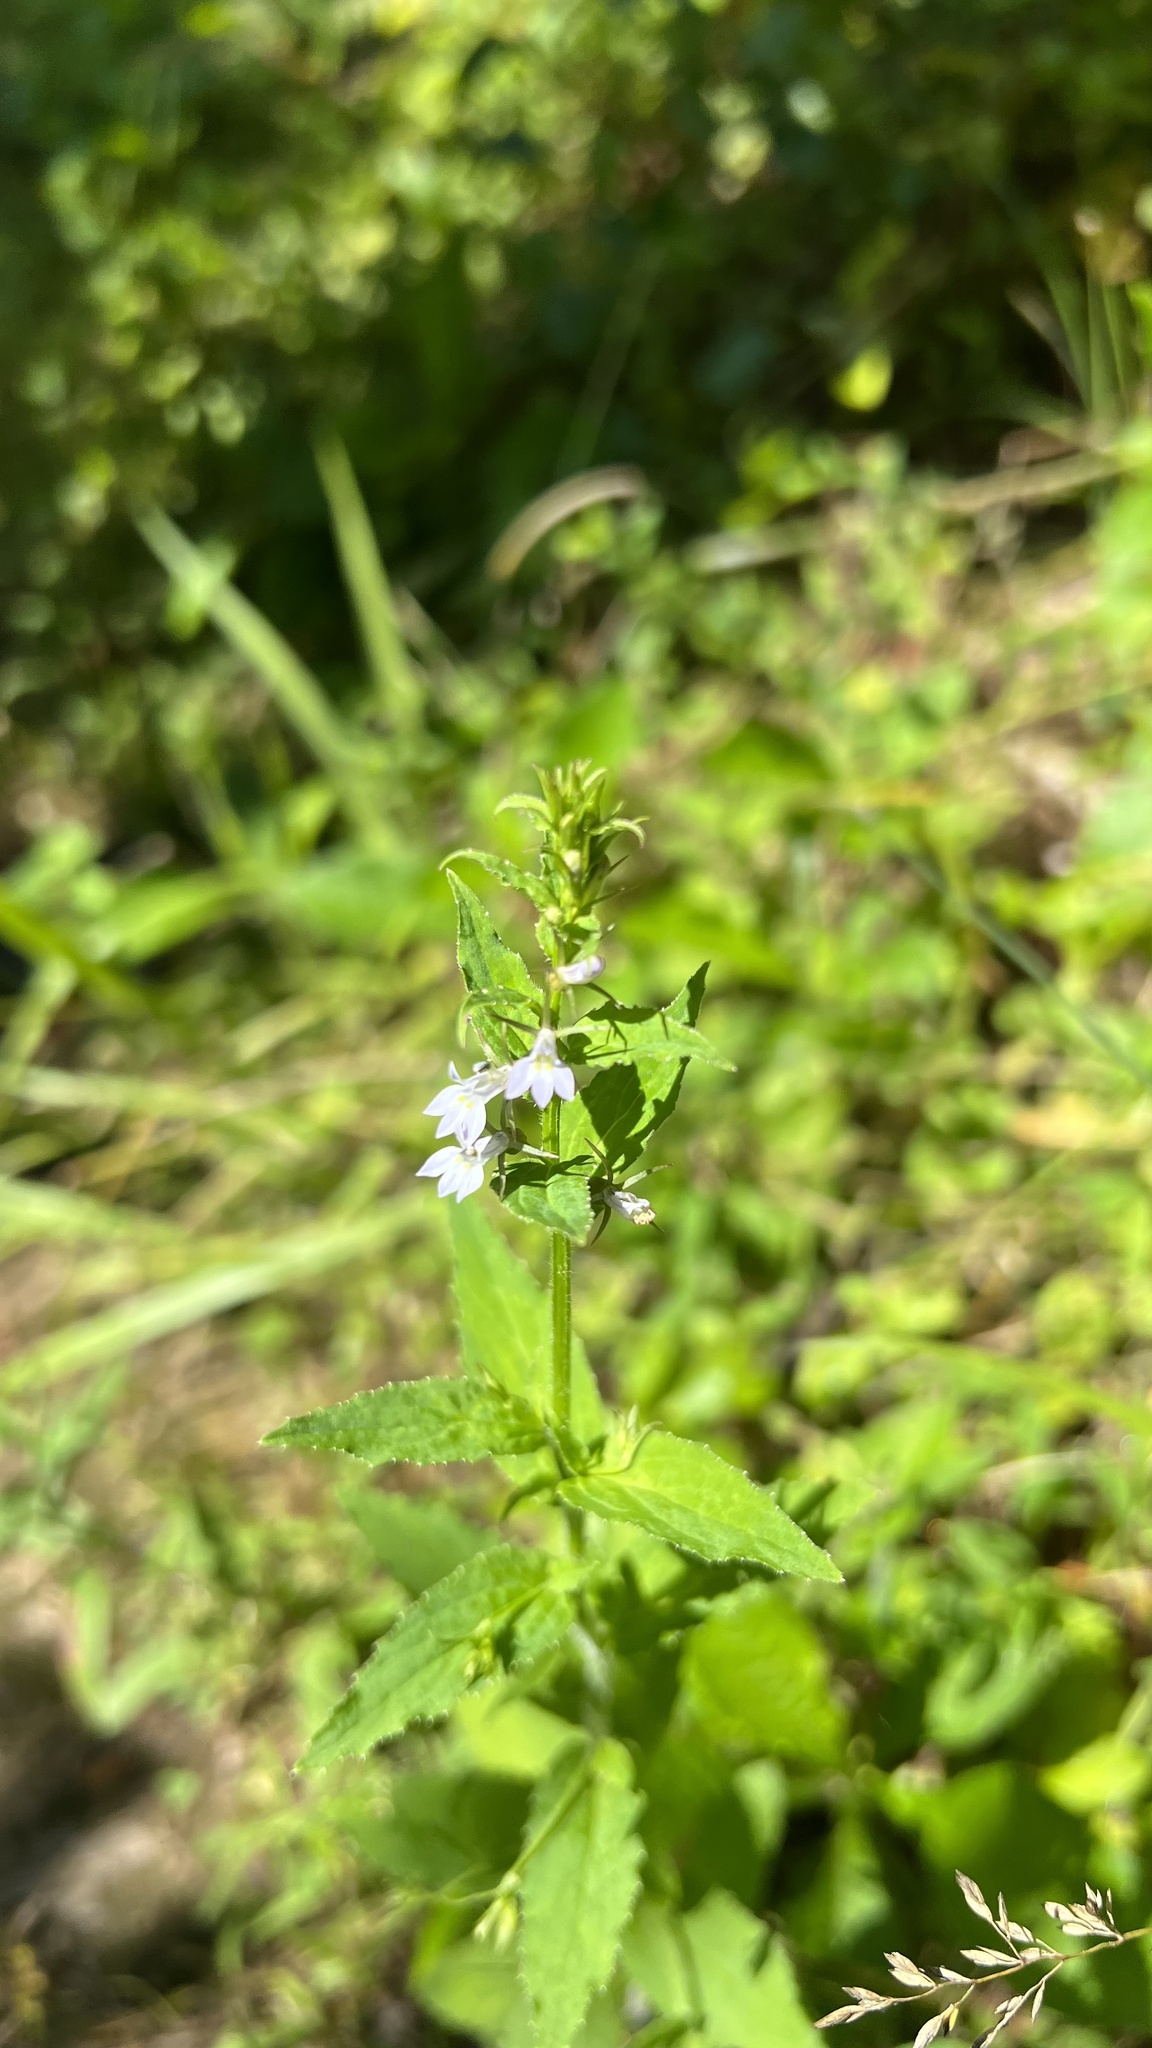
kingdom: Plantae
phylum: Tracheophyta
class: Magnoliopsida
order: Asterales
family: Campanulaceae
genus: Lobelia
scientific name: Lobelia inflata
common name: Indian tobacco
